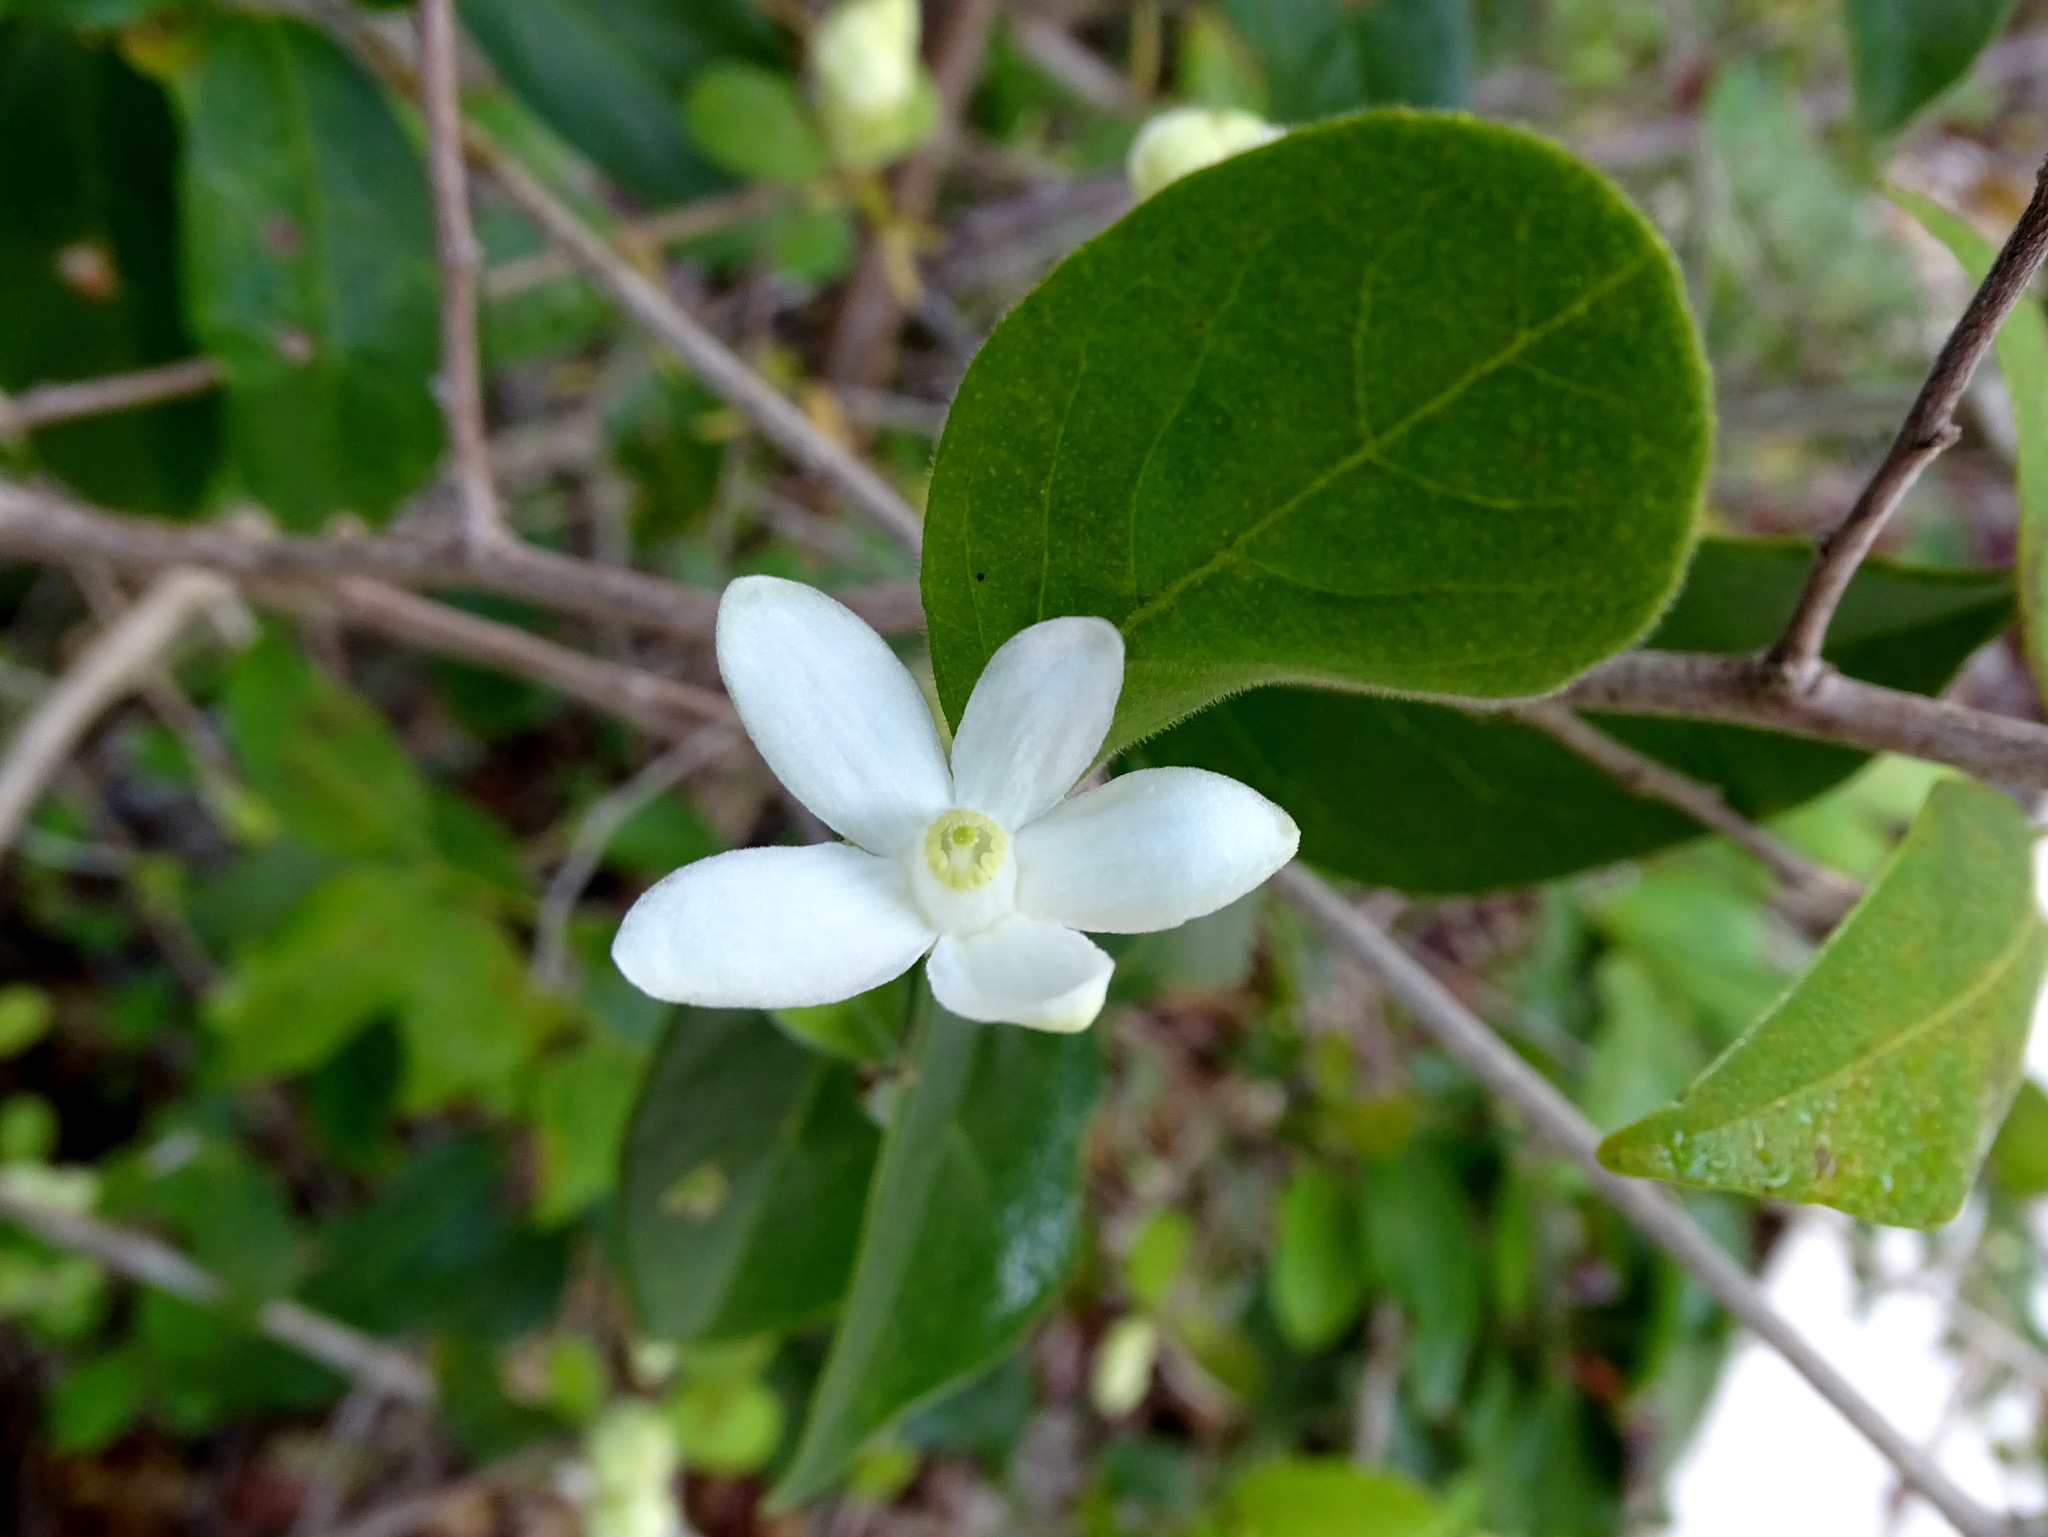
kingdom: Plantae
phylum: Tracheophyta
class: Magnoliopsida
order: Malpighiales
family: Salicaceae
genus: Casearia
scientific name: Casearia yucatanensis
